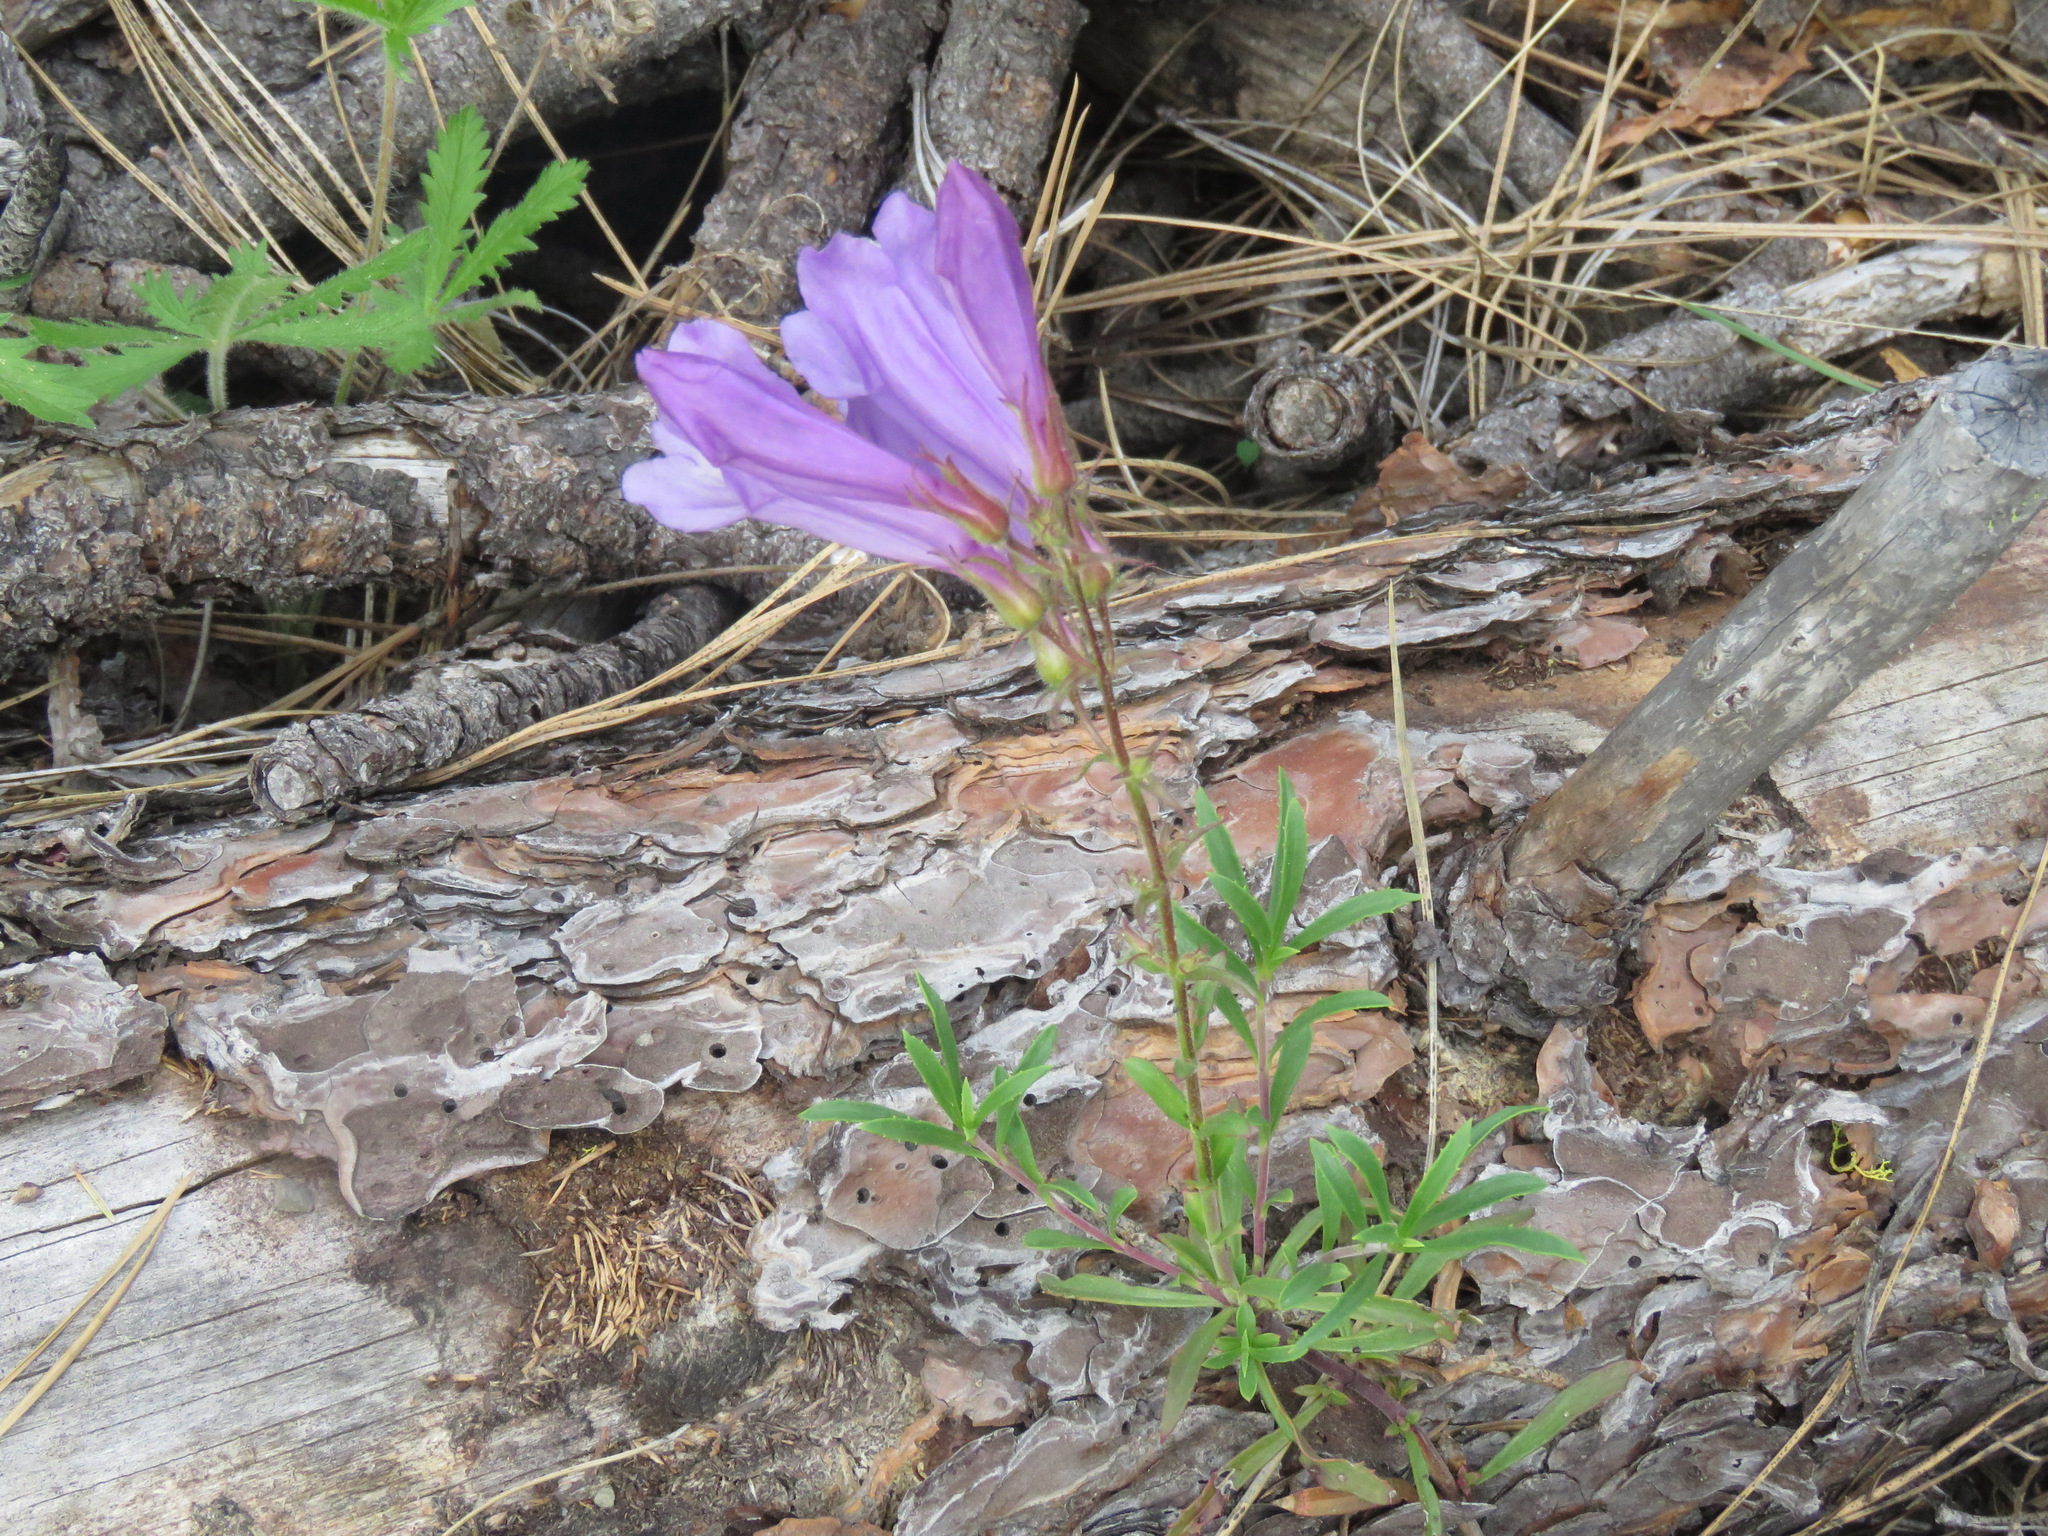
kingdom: Plantae
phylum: Tracheophyta
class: Magnoliopsida
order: Lamiales
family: Plantaginaceae
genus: Penstemon
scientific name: Penstemon fruticosus
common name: Bush penstemon
